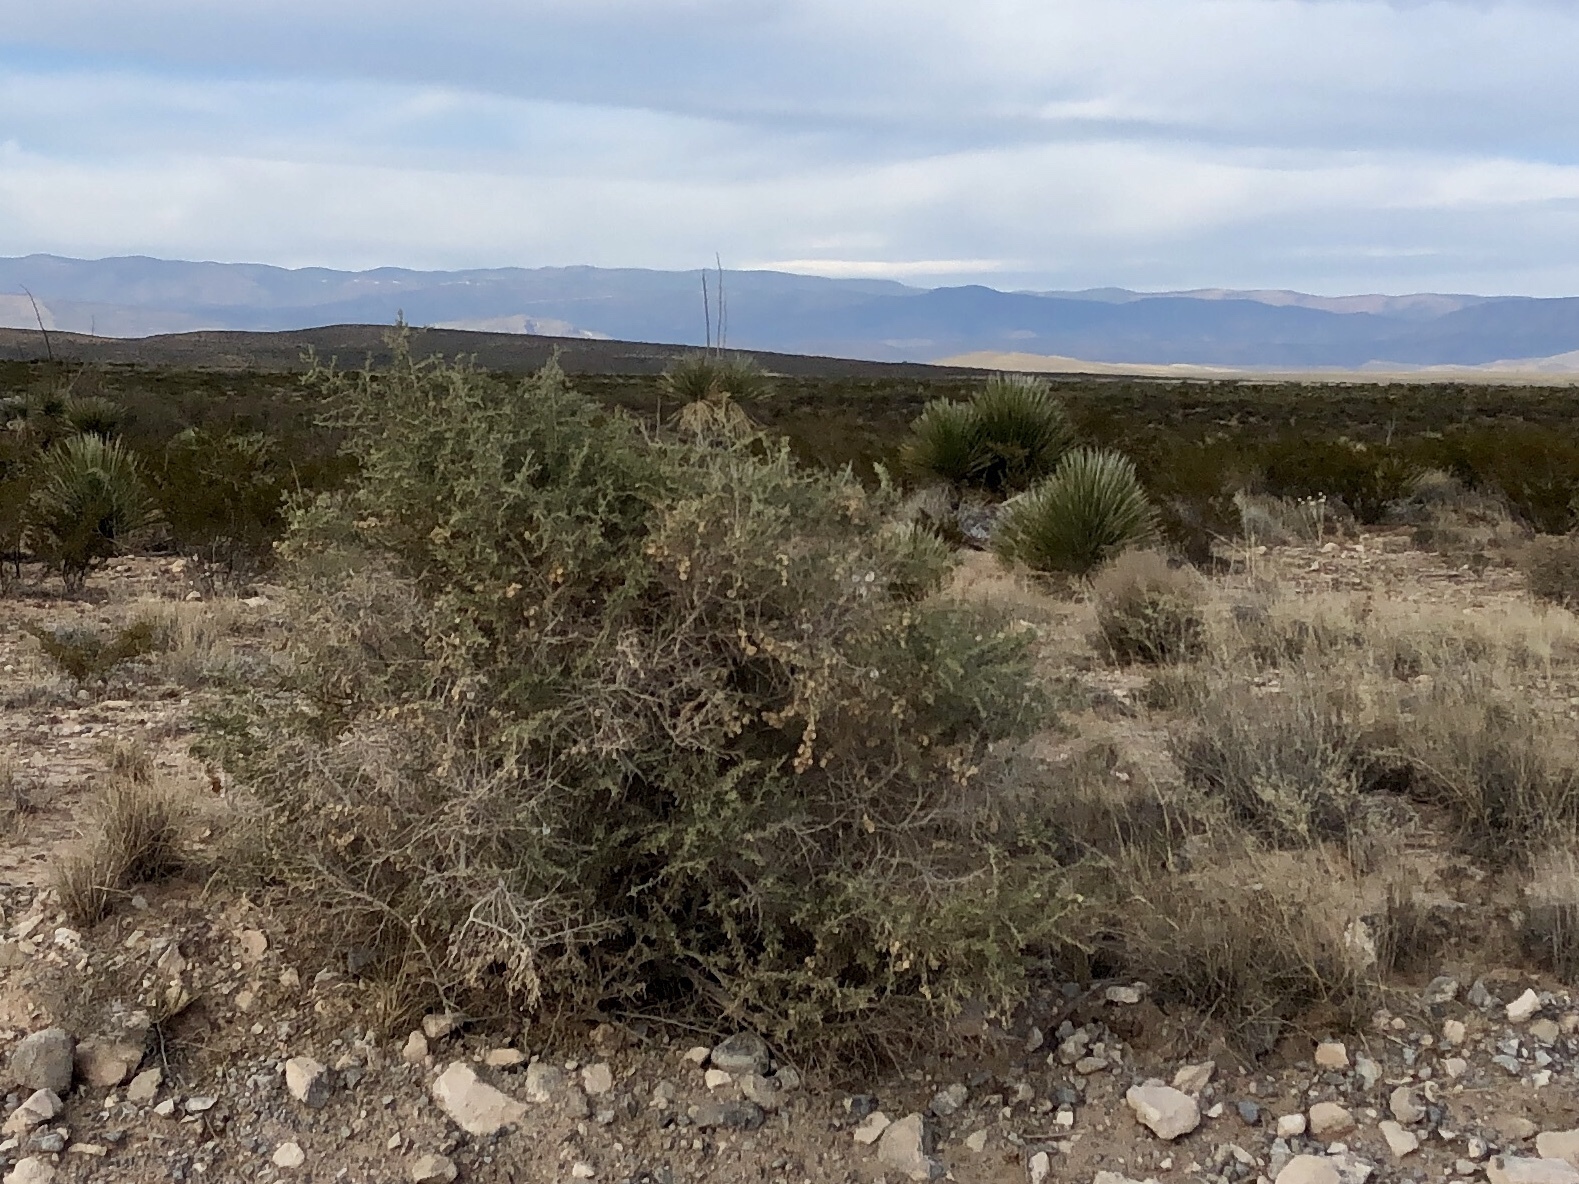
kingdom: Plantae
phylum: Tracheophyta
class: Magnoliopsida
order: Caryophyllales
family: Amaranthaceae
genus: Atriplex
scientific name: Atriplex canescens
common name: Four-wing saltbush
